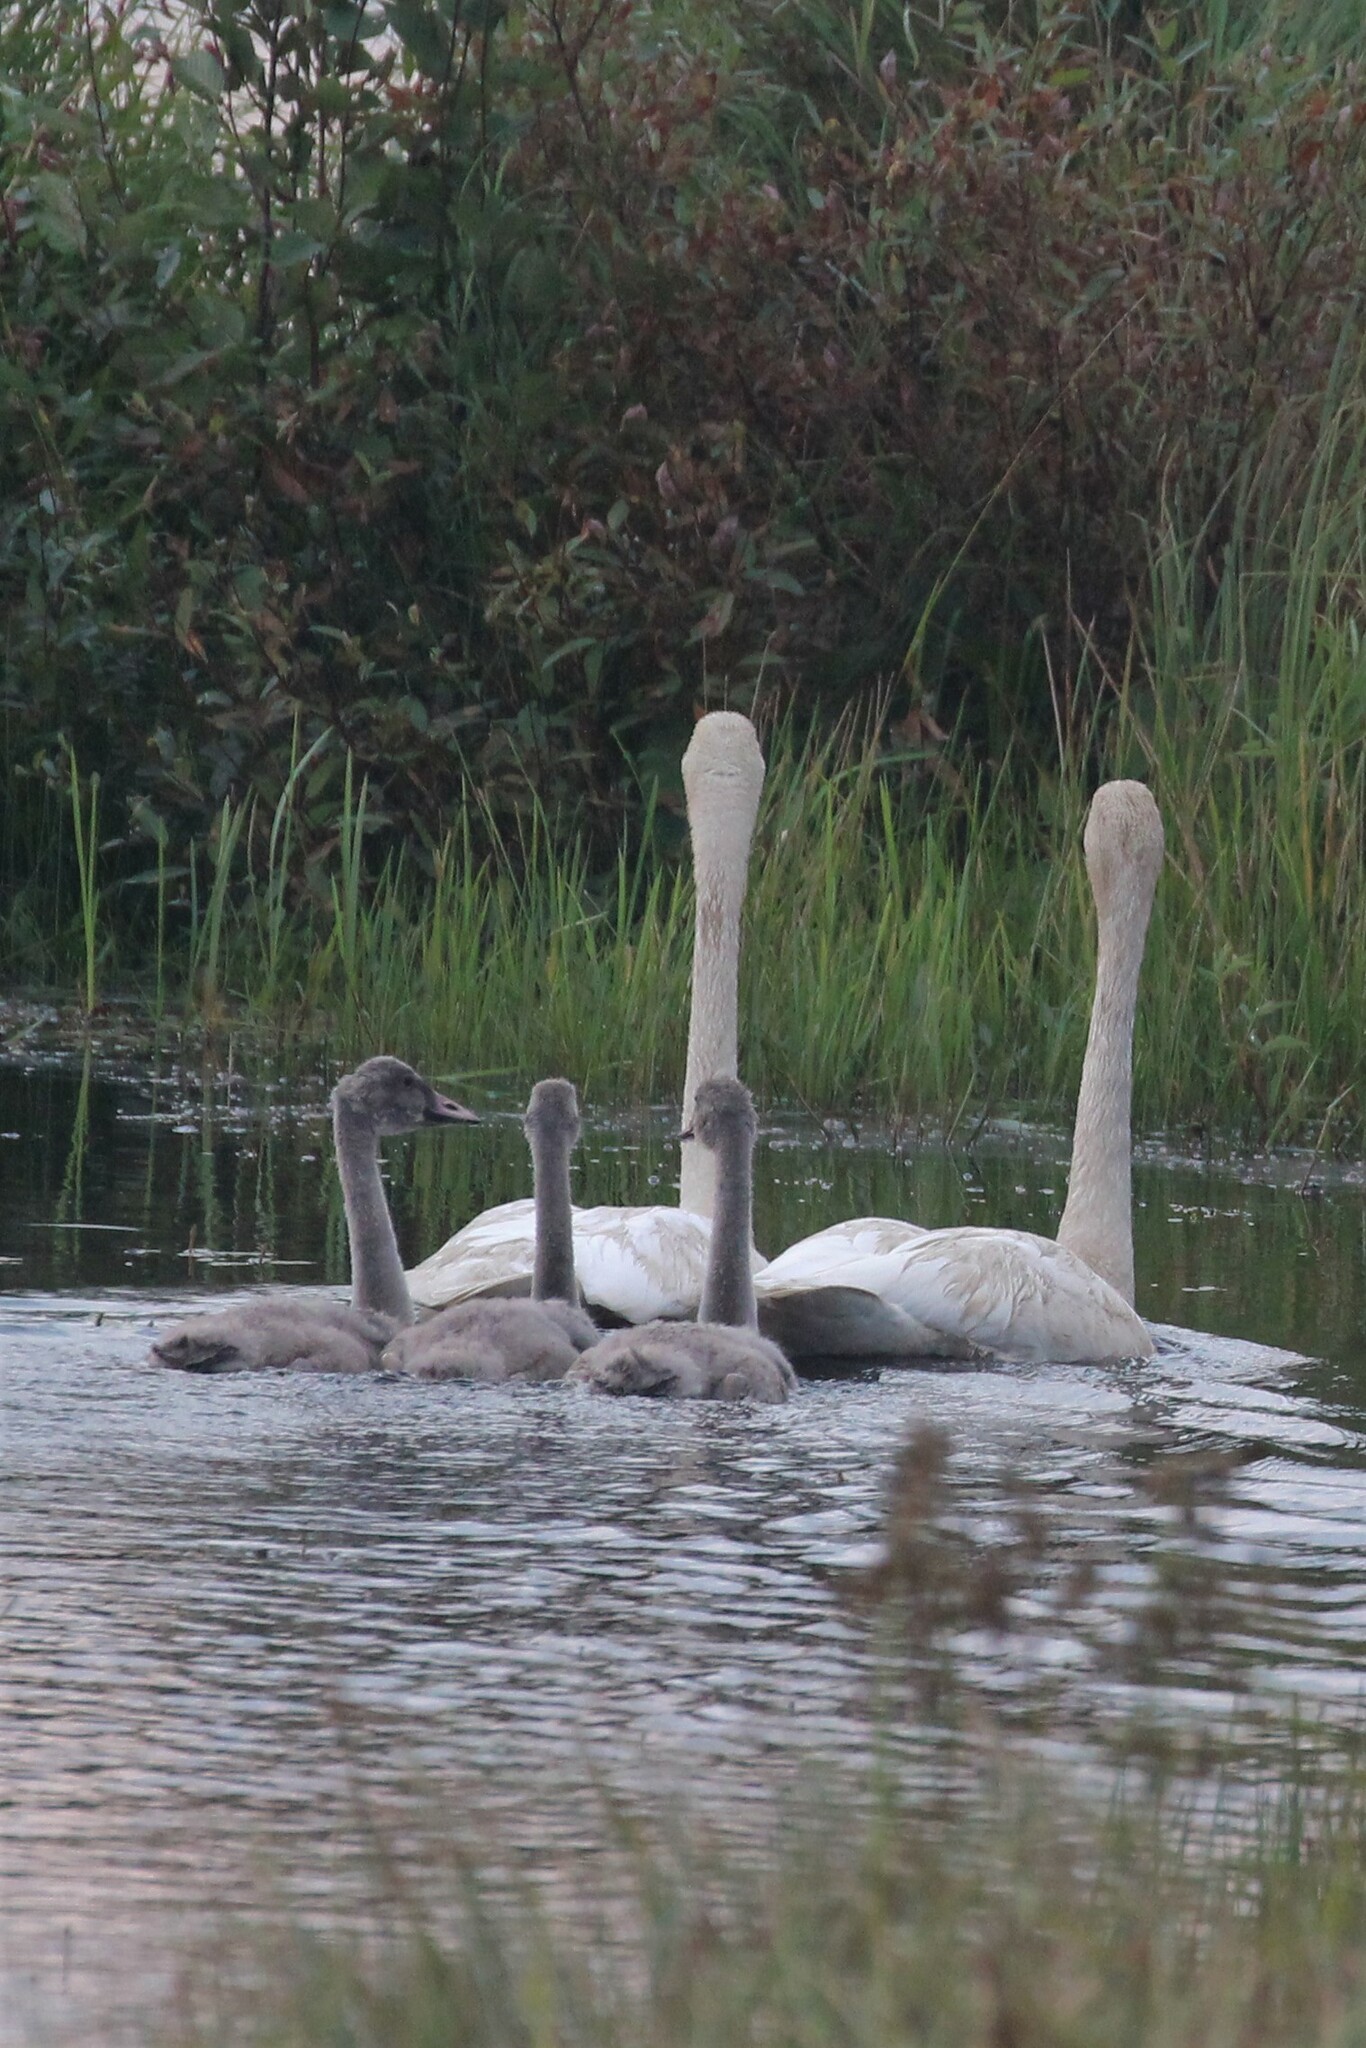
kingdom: Animalia
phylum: Chordata
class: Aves
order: Anseriformes
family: Anatidae
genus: Cygnus
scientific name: Cygnus buccinator
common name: Trumpeter swan
